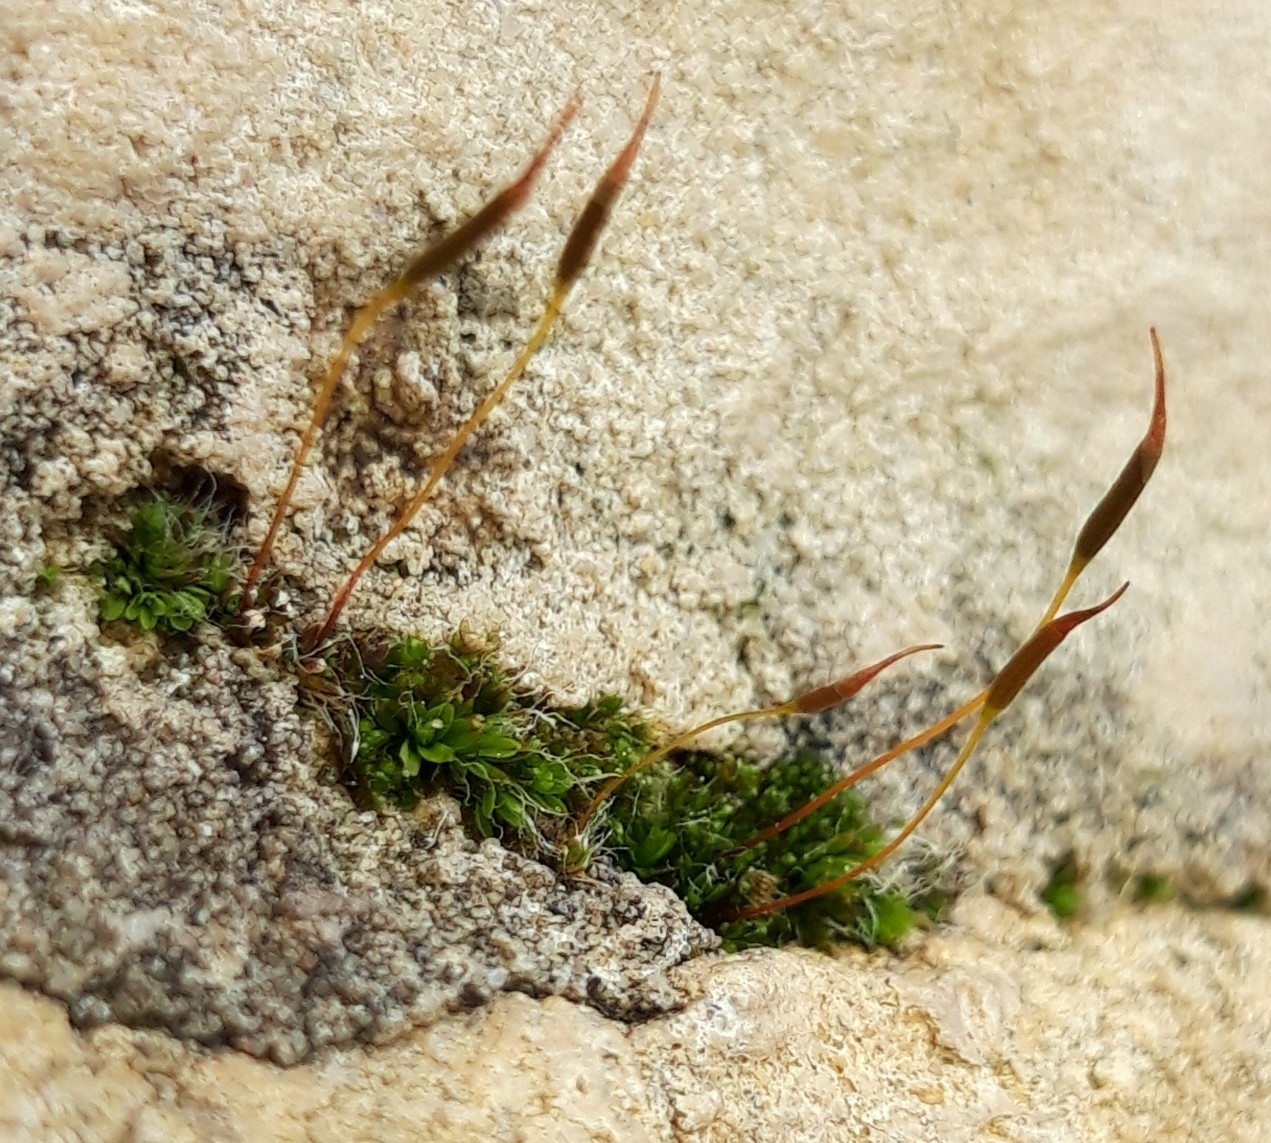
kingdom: Plantae
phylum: Bryophyta
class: Bryopsida
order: Pottiales
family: Pottiaceae
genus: Tortula
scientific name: Tortula muralis
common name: Wall screw-moss
